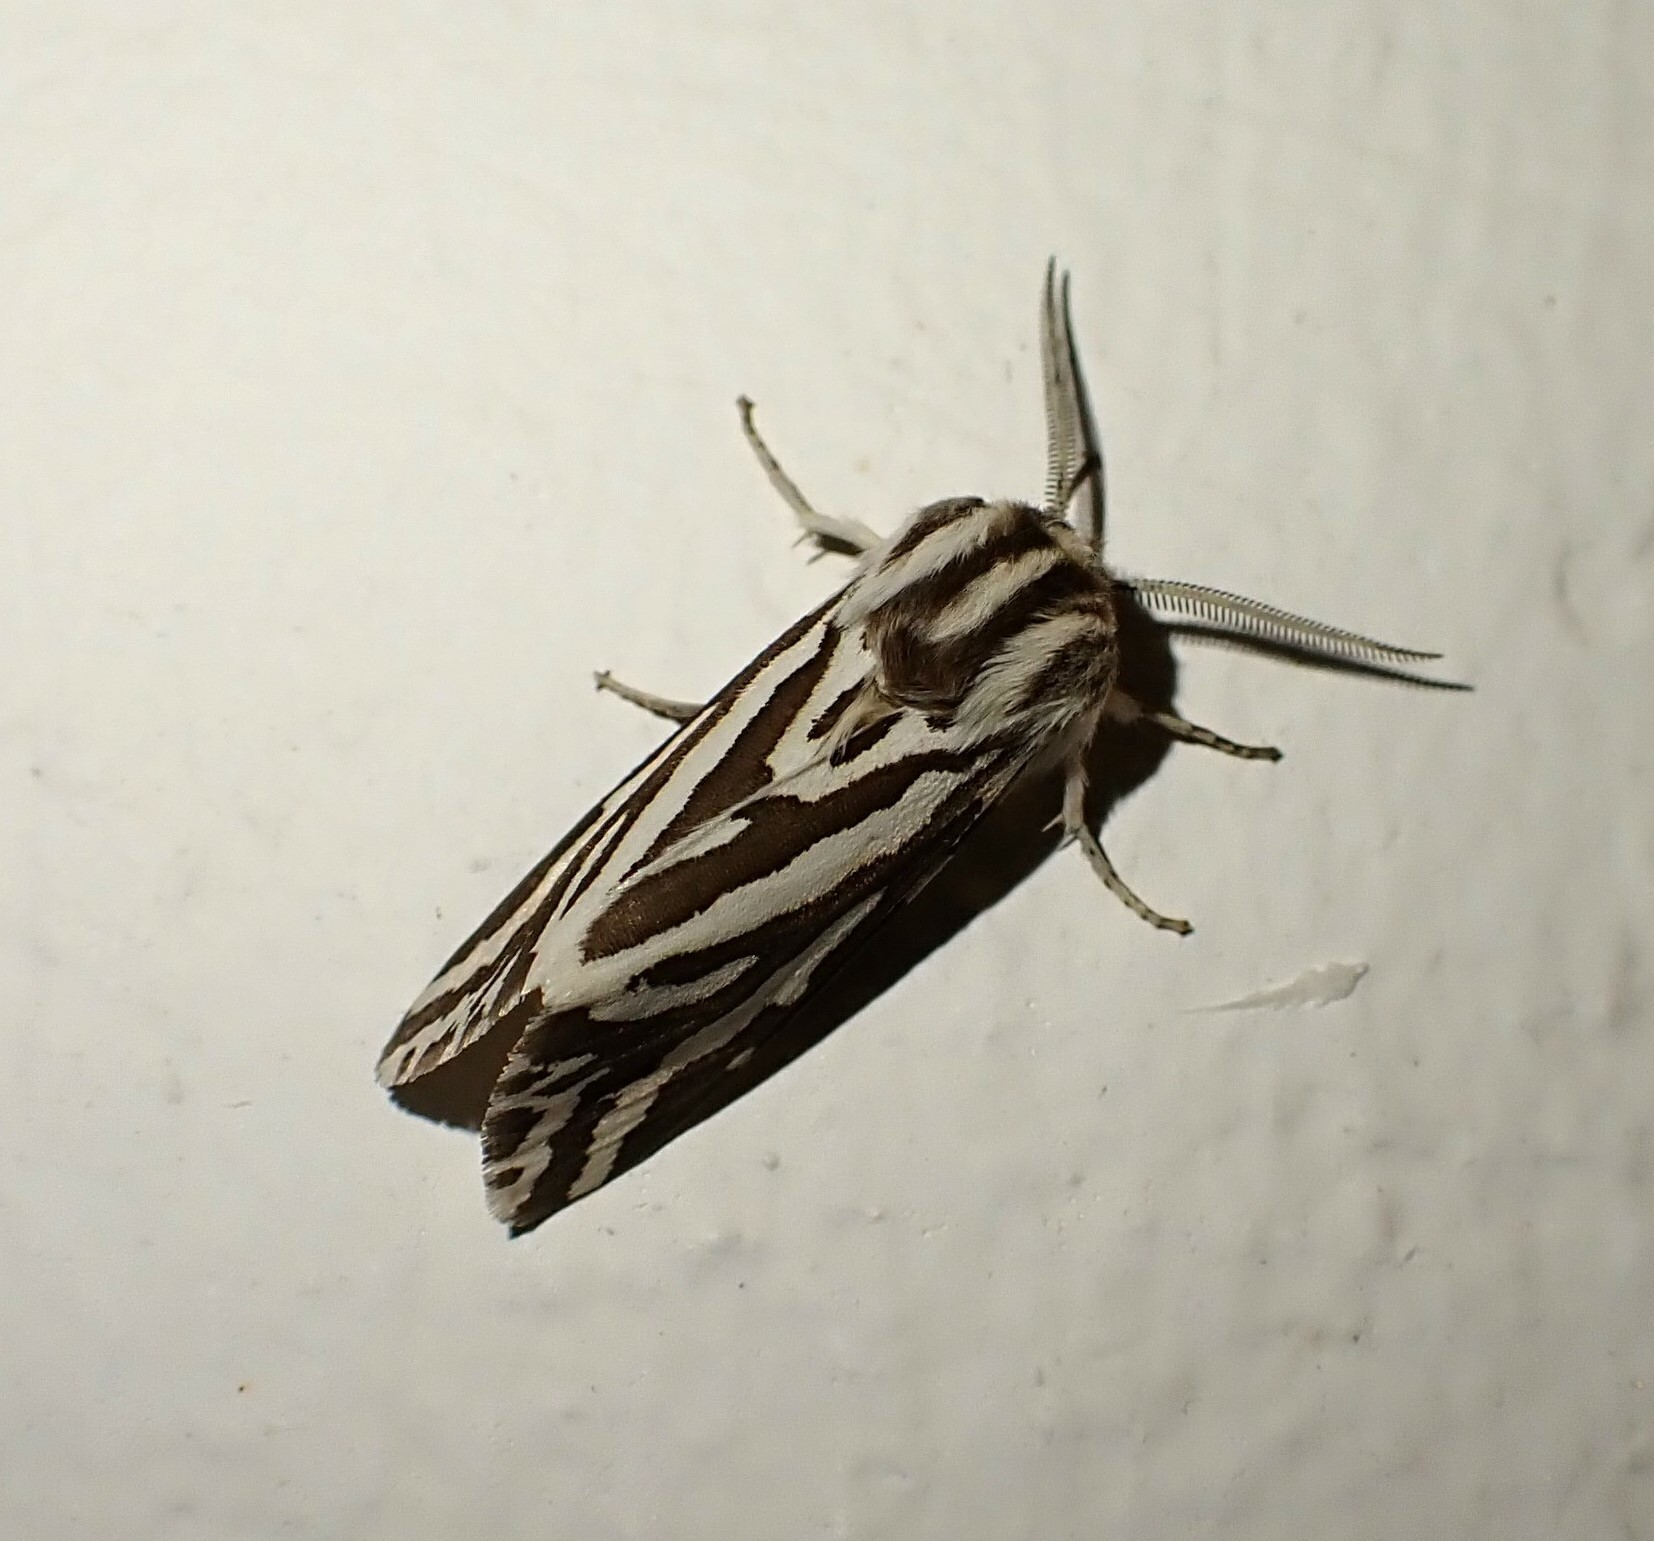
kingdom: Animalia
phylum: Arthropoda
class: Insecta
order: Lepidoptera
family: Erebidae
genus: Paralacydes
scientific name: Paralacydes vocula
